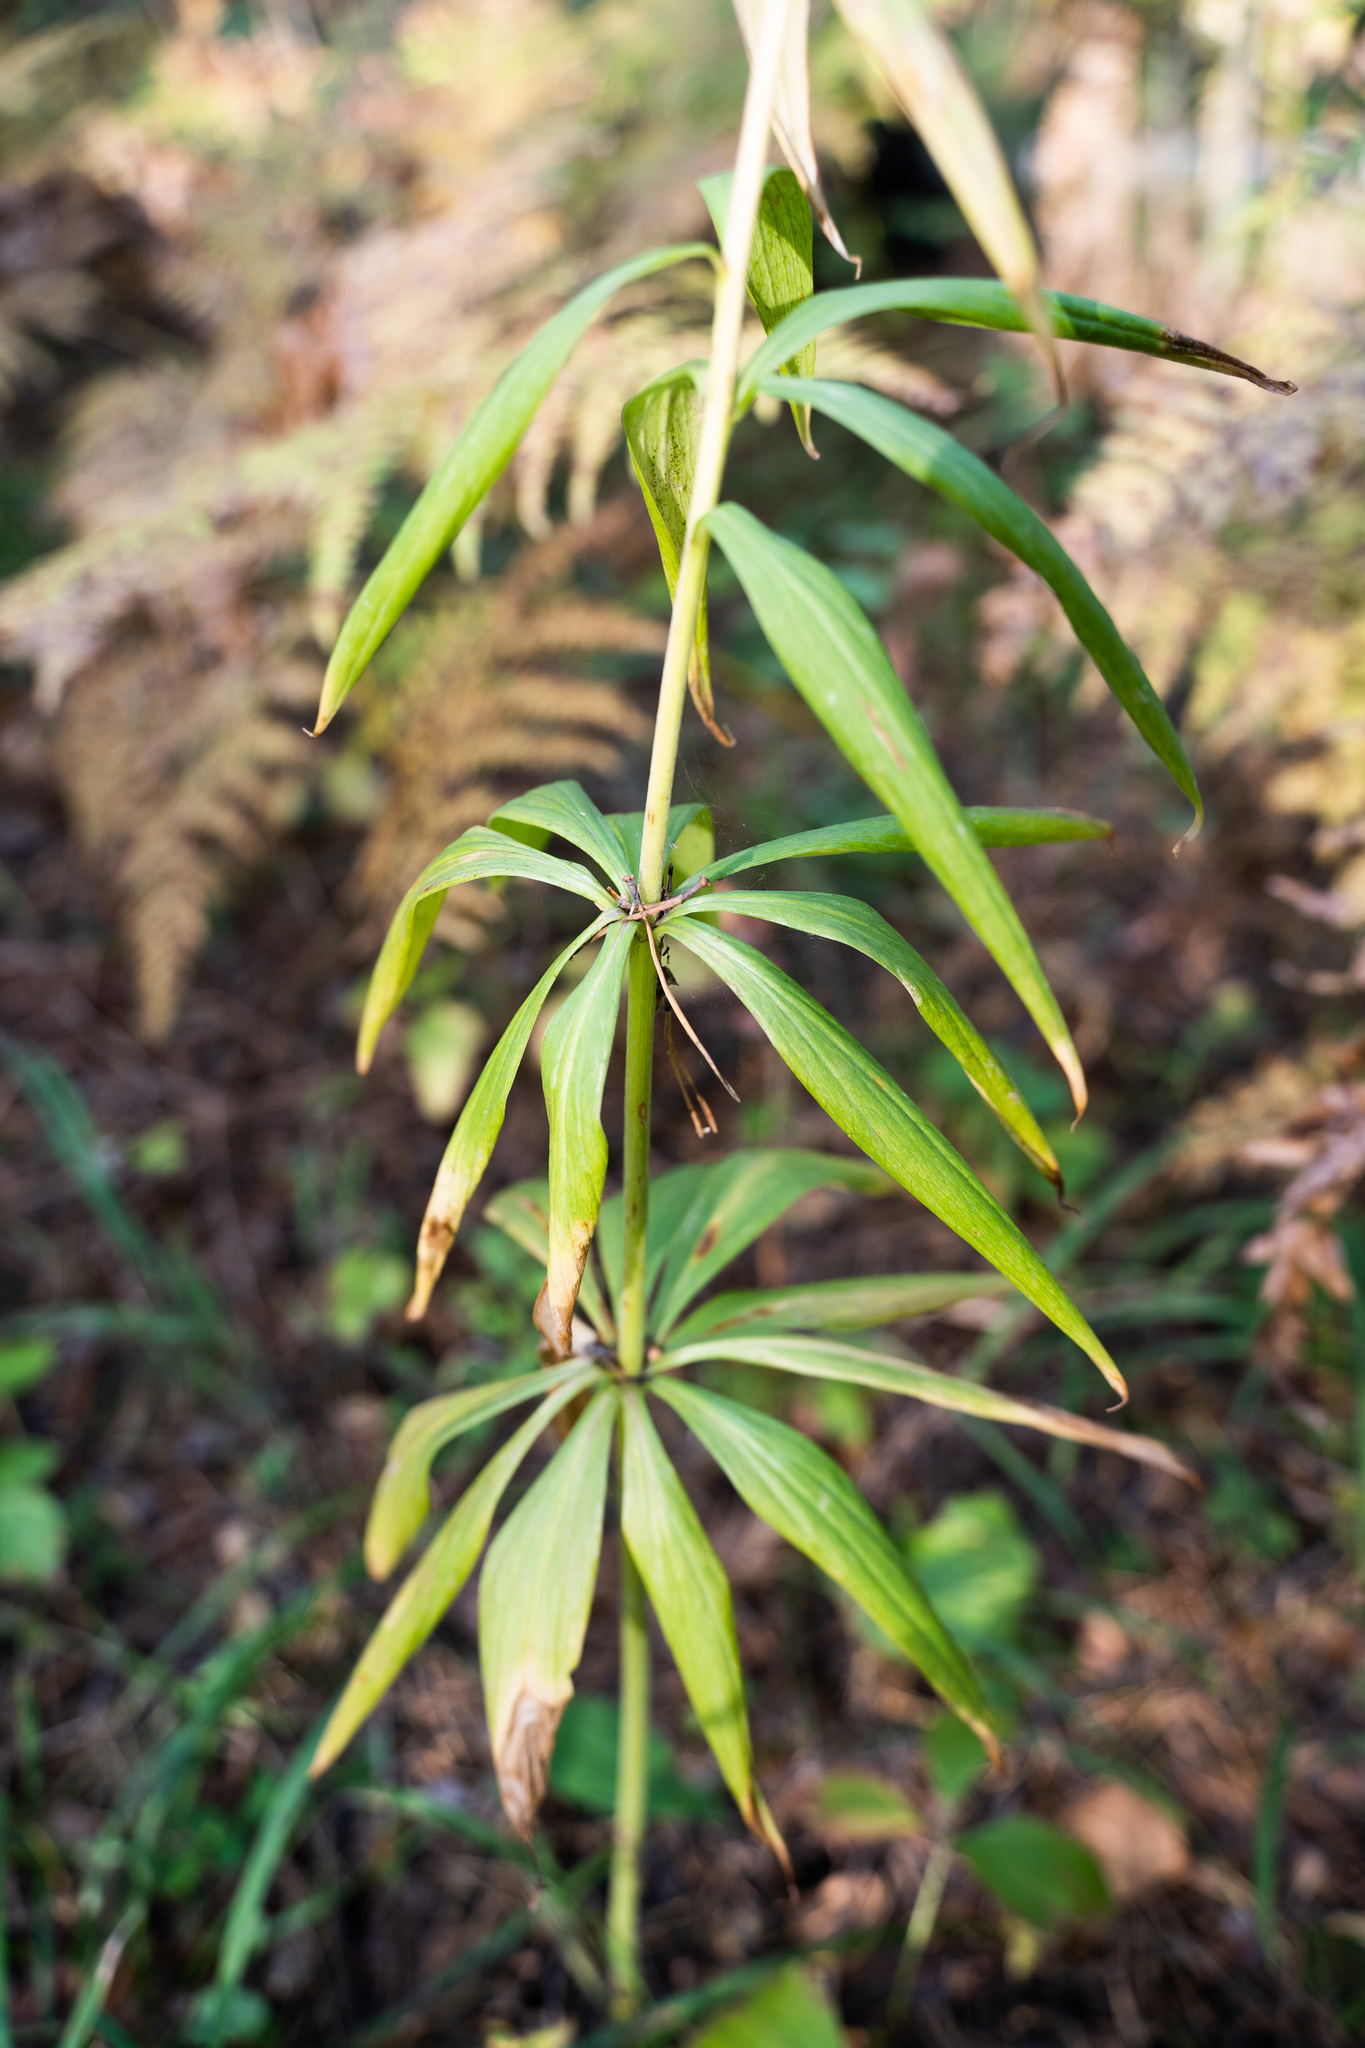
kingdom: Plantae
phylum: Tracheophyta
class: Liliopsida
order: Liliales
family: Liliaceae
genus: Lilium
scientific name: Lilium martagon
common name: Martagon lily
